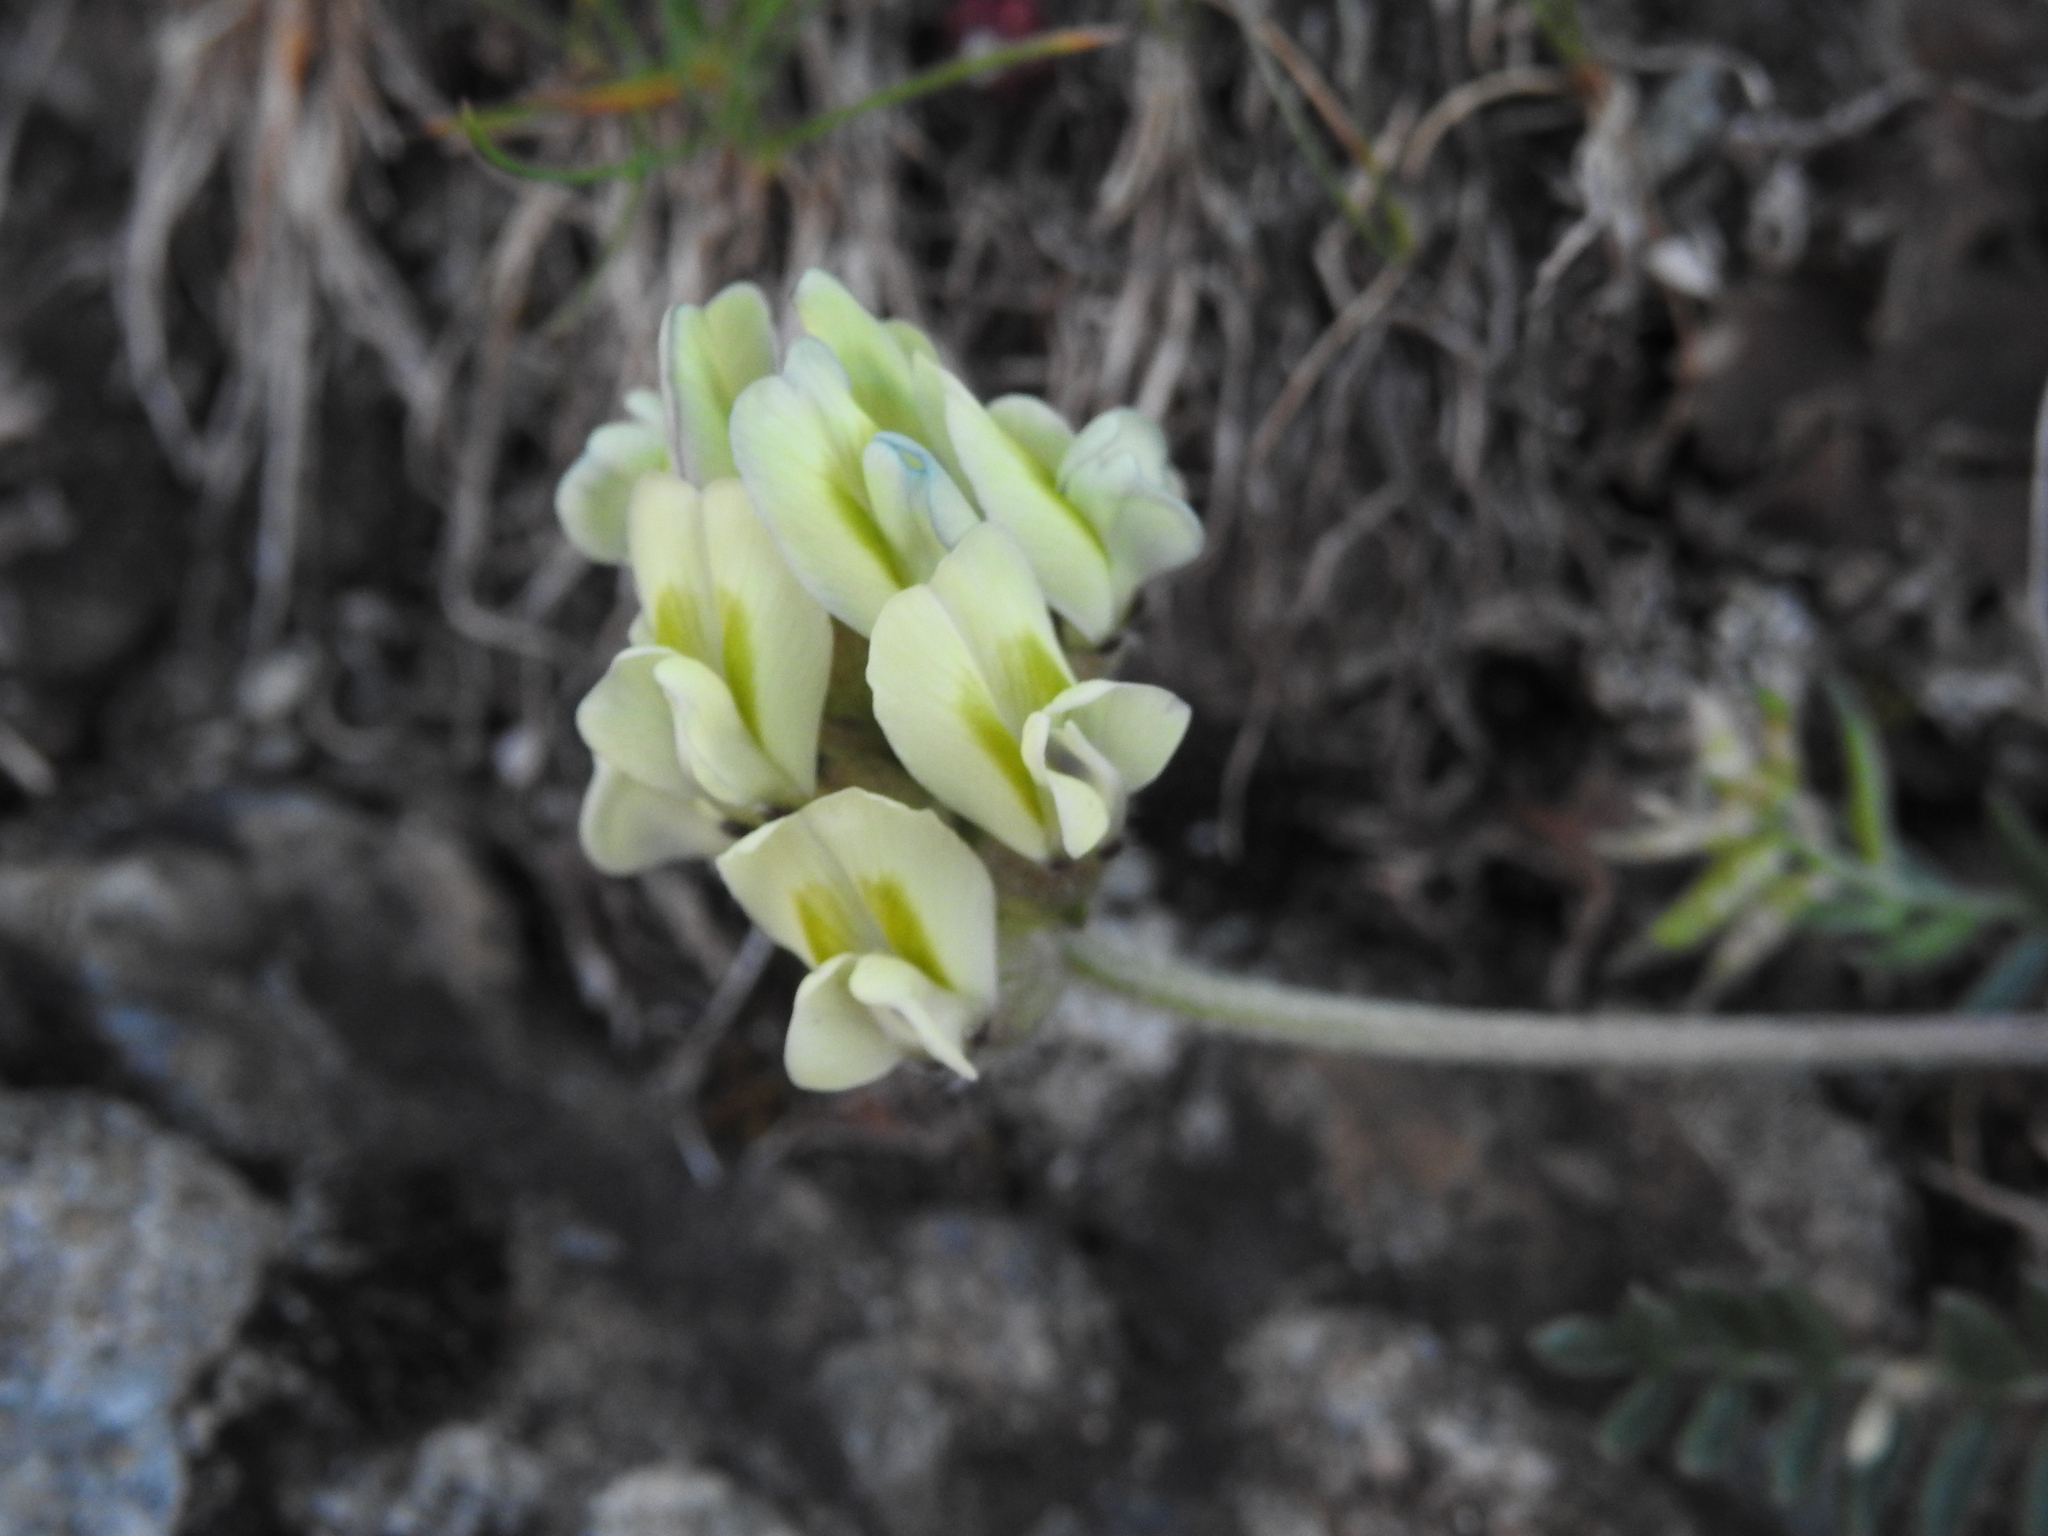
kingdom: Plantae
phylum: Tracheophyta
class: Magnoliopsida
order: Fabales
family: Fabaceae
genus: Oxytropis
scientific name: Oxytropis campestris
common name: Field locoweed
